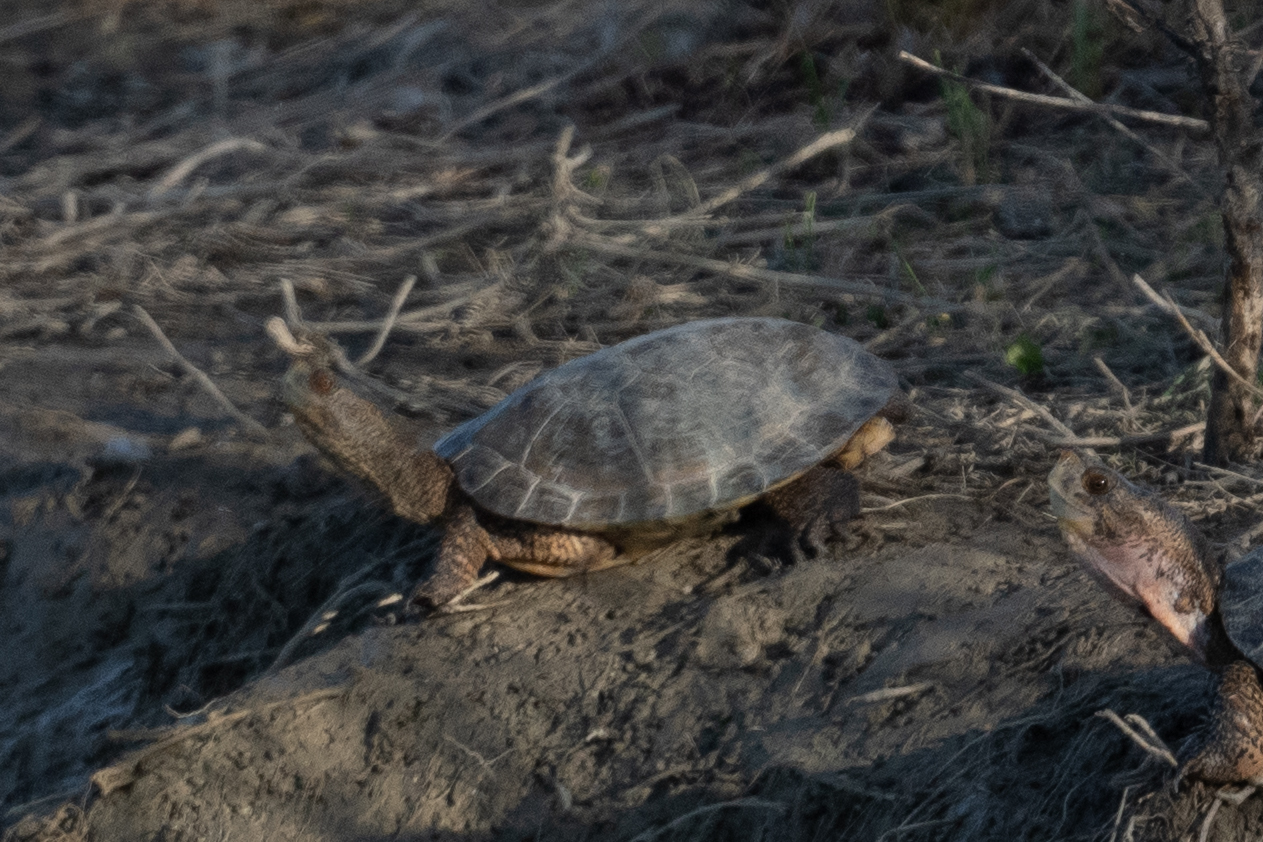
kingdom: Animalia
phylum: Chordata
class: Testudines
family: Emydidae
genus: Actinemys
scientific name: Actinemys marmorata
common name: Western pond turtle
